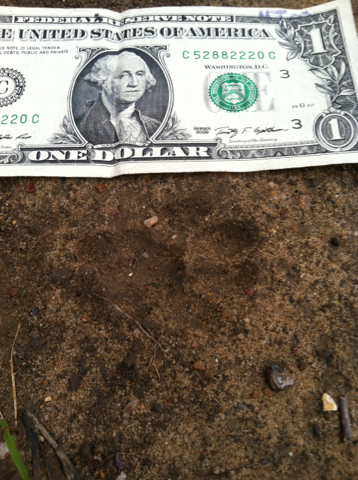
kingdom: Animalia
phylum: Chordata
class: Mammalia
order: Carnivora
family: Felidae
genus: Lynx
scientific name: Lynx rufus
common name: Bobcat
